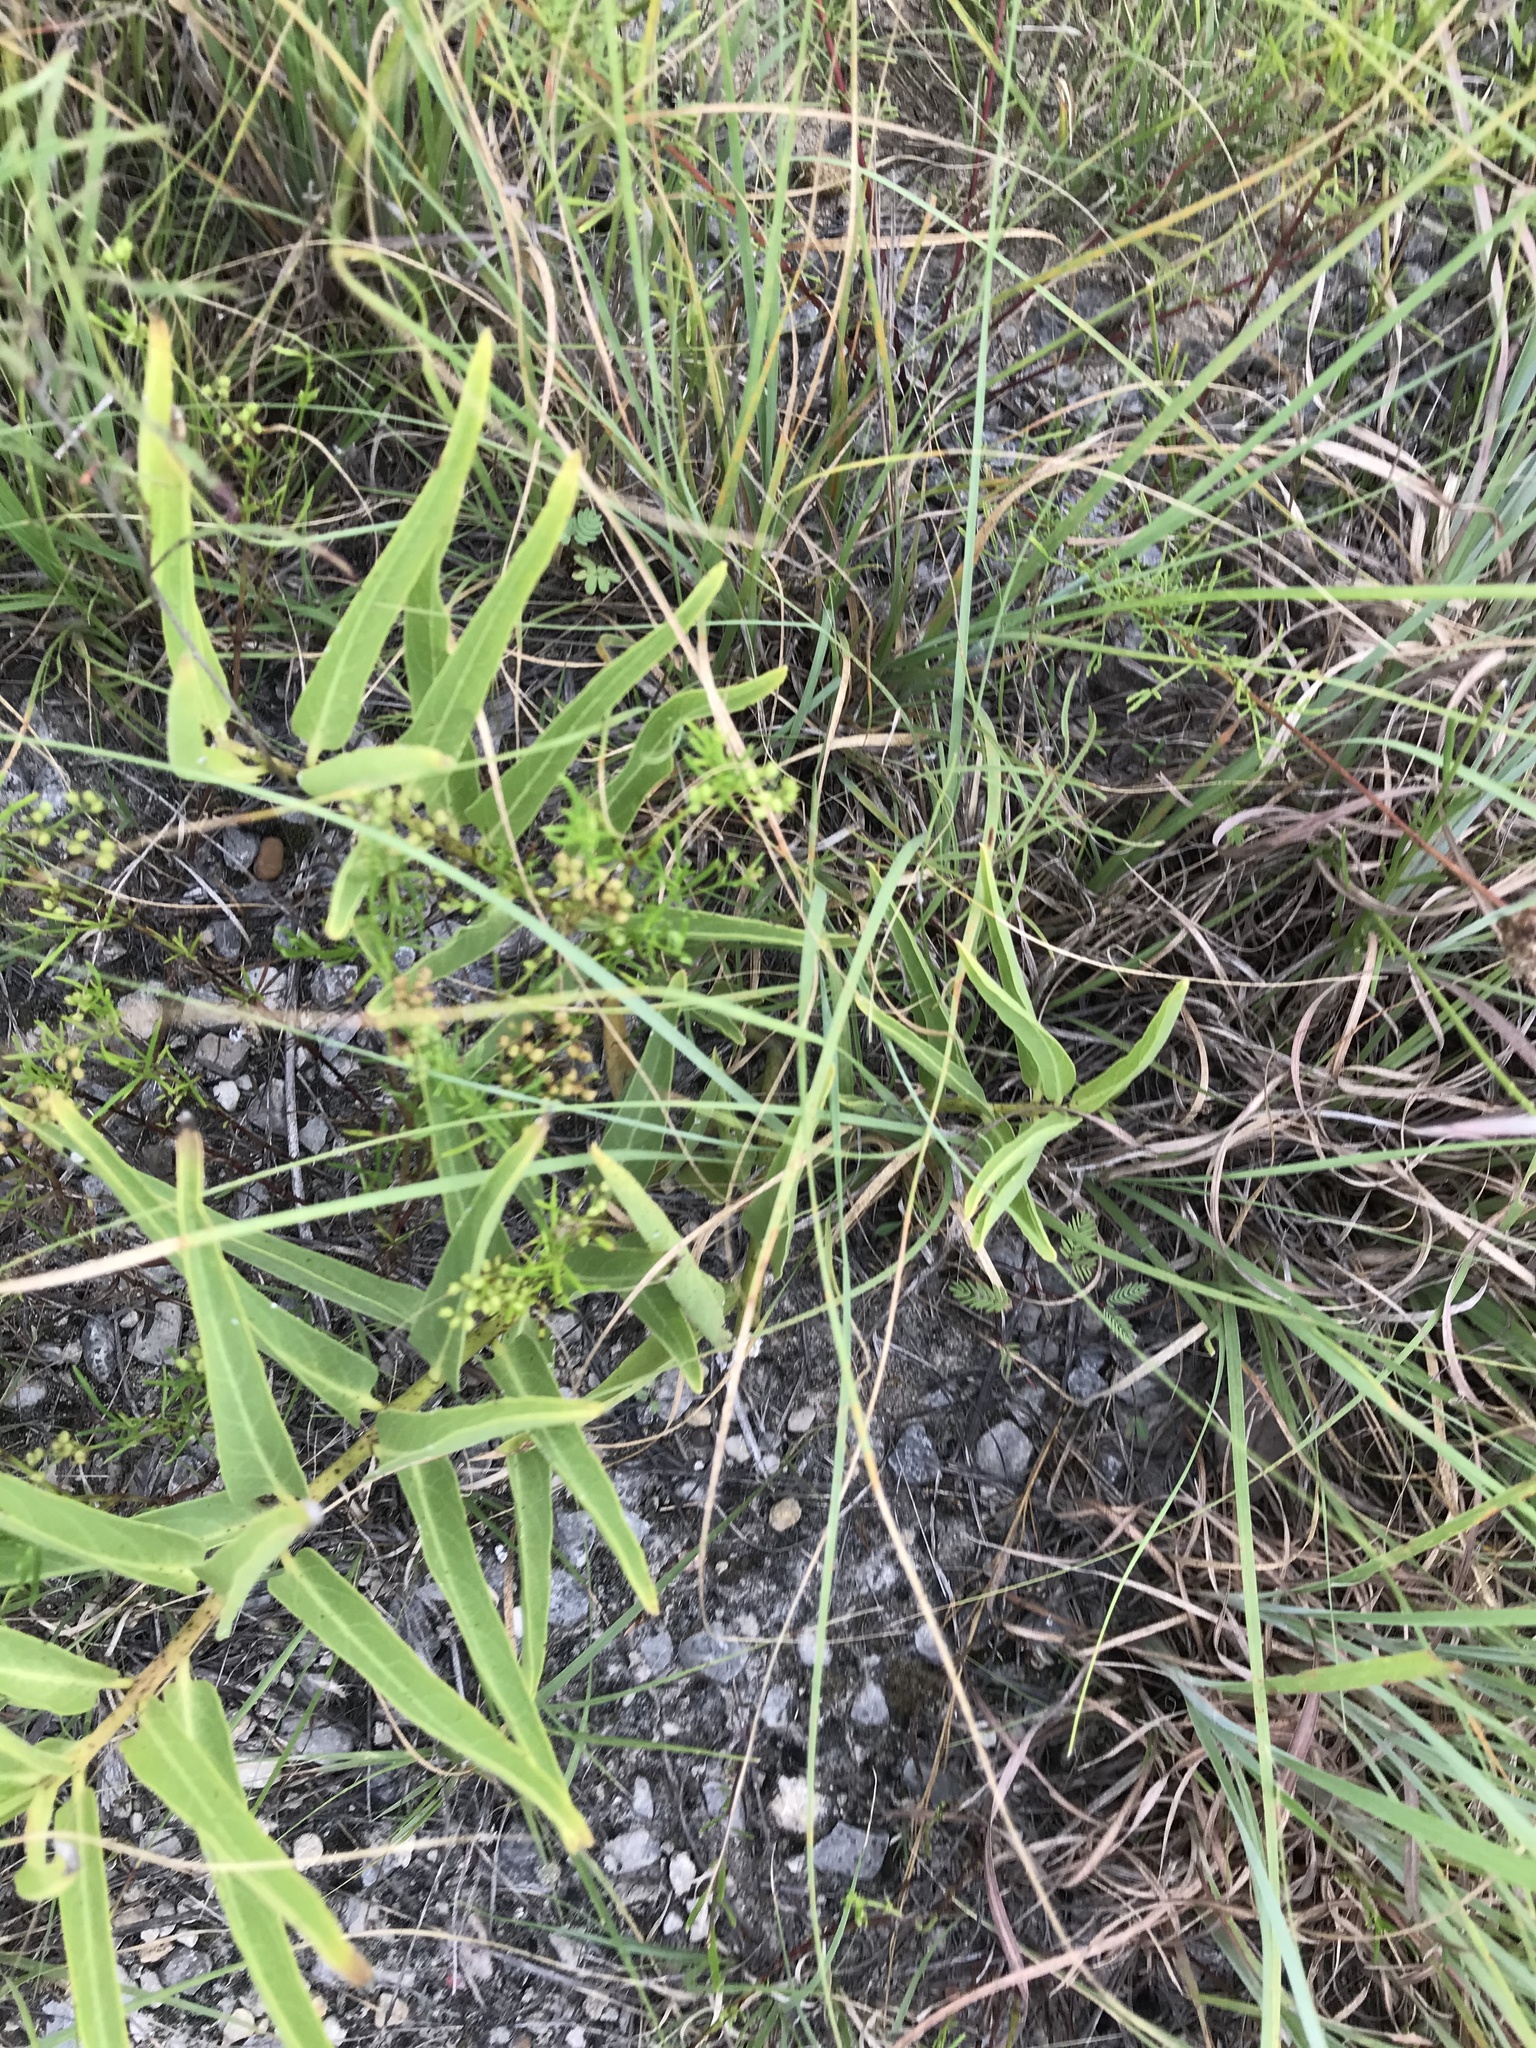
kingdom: Plantae
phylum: Tracheophyta
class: Magnoliopsida
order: Gentianales
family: Apocynaceae
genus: Asclepias
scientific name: Asclepias asperula
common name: Antelope horns
